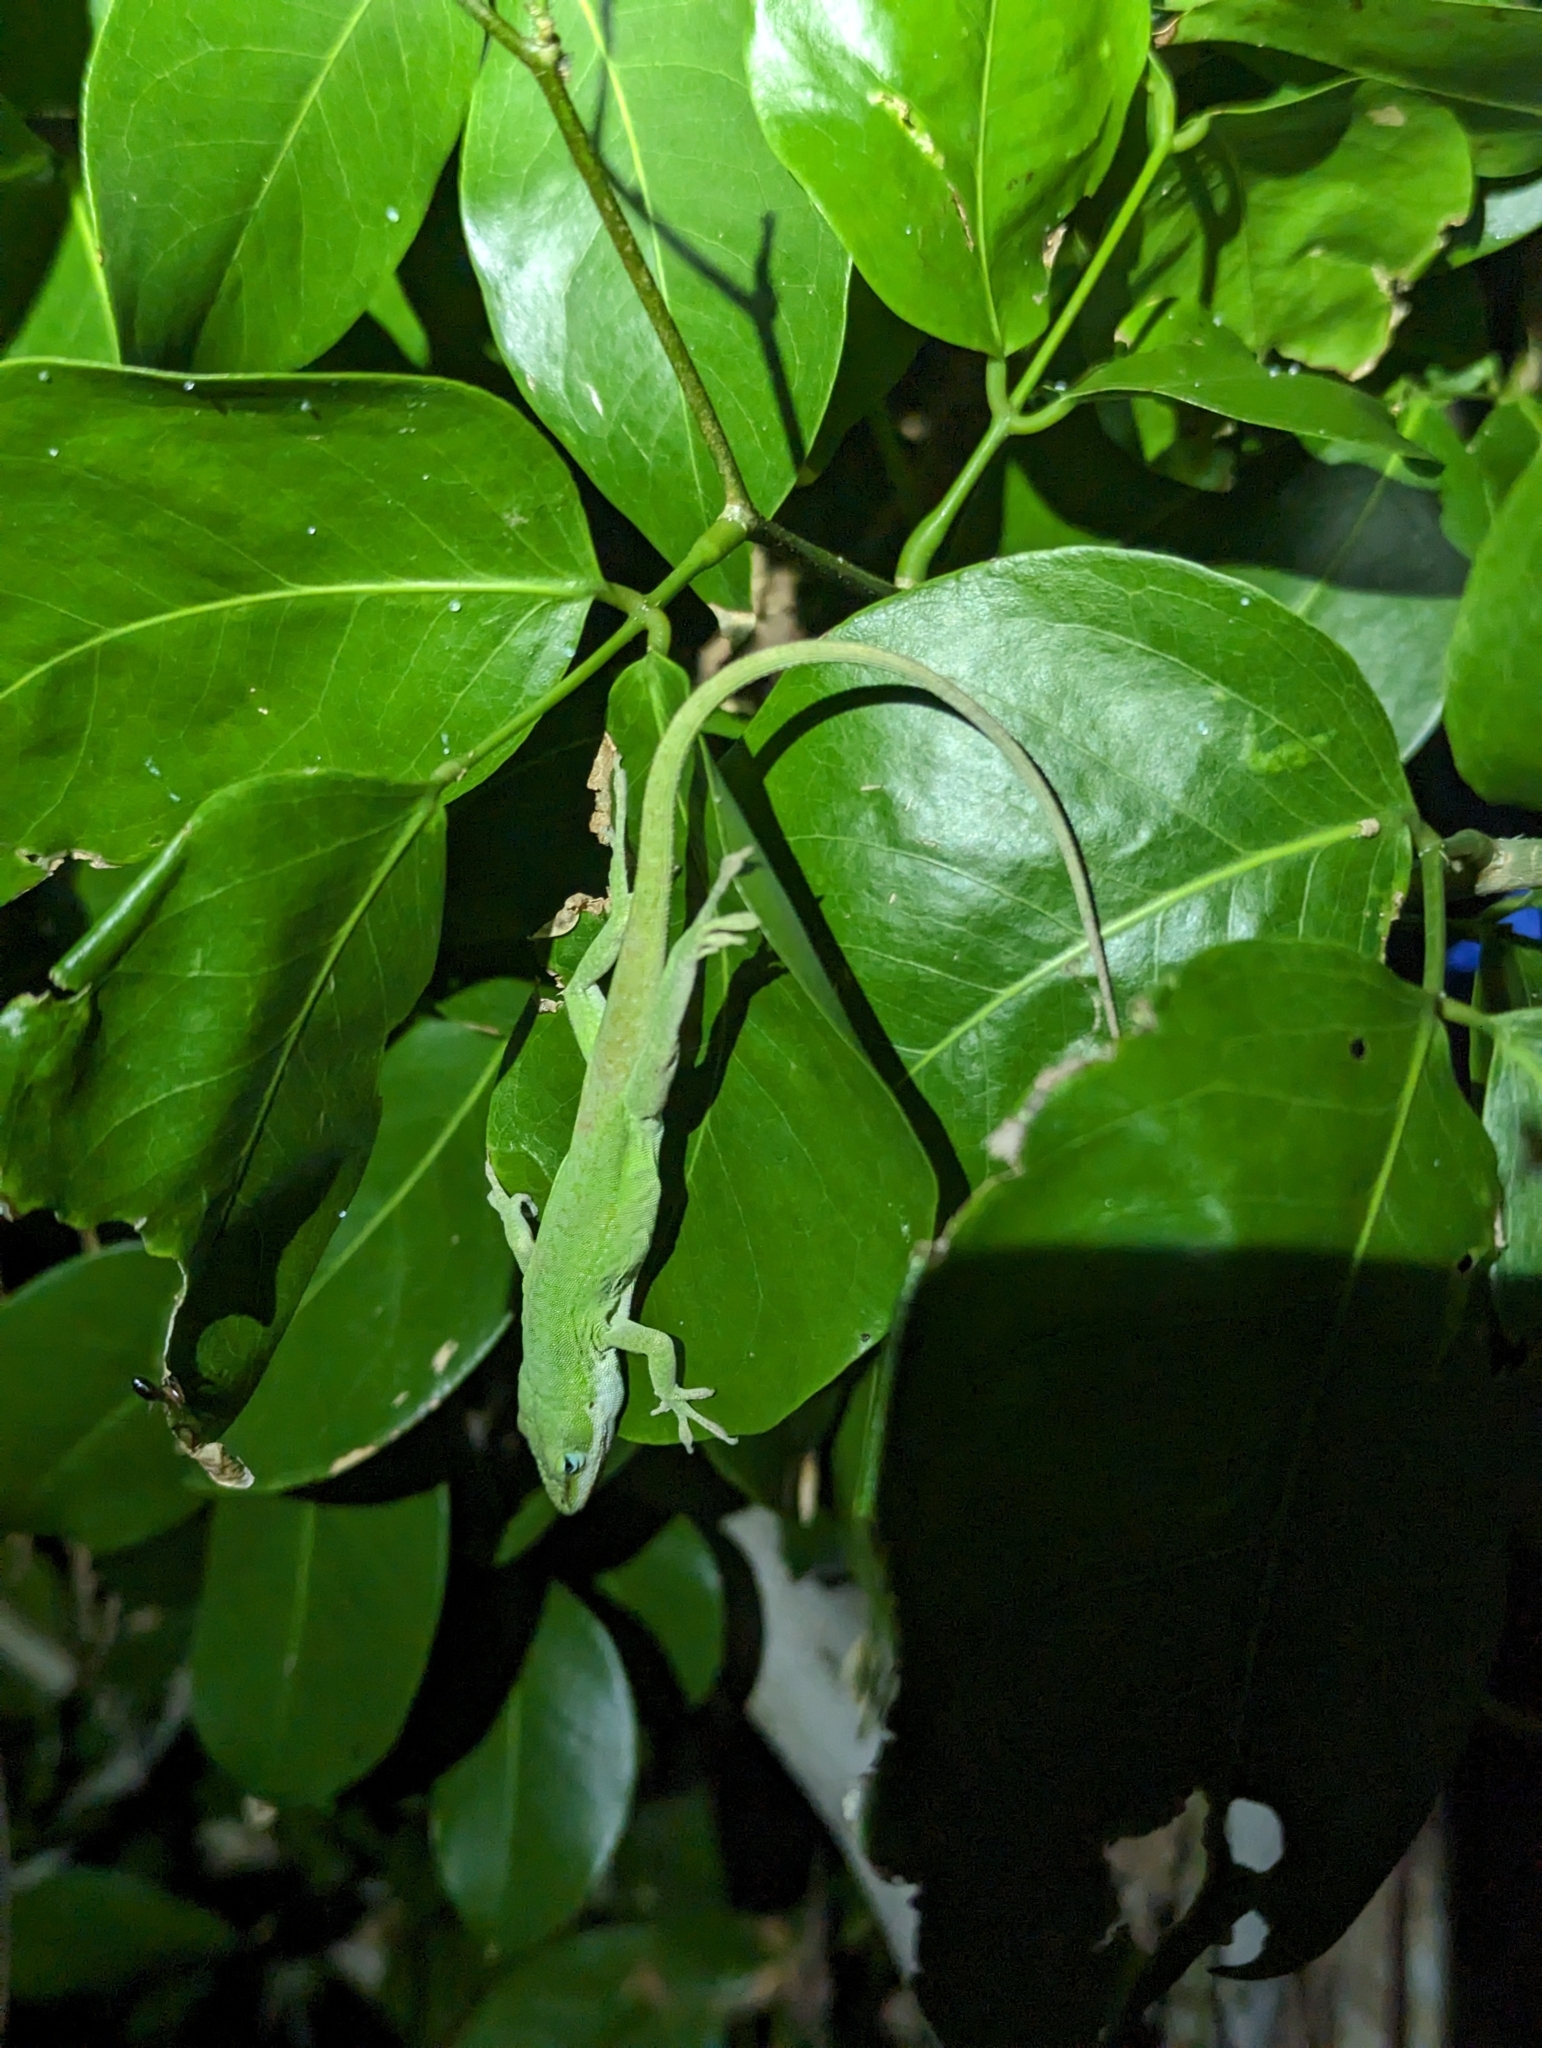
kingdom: Animalia
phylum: Chordata
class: Squamata
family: Dactyloidae
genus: Anolis
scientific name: Anolis carolinensis
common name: Green anole
